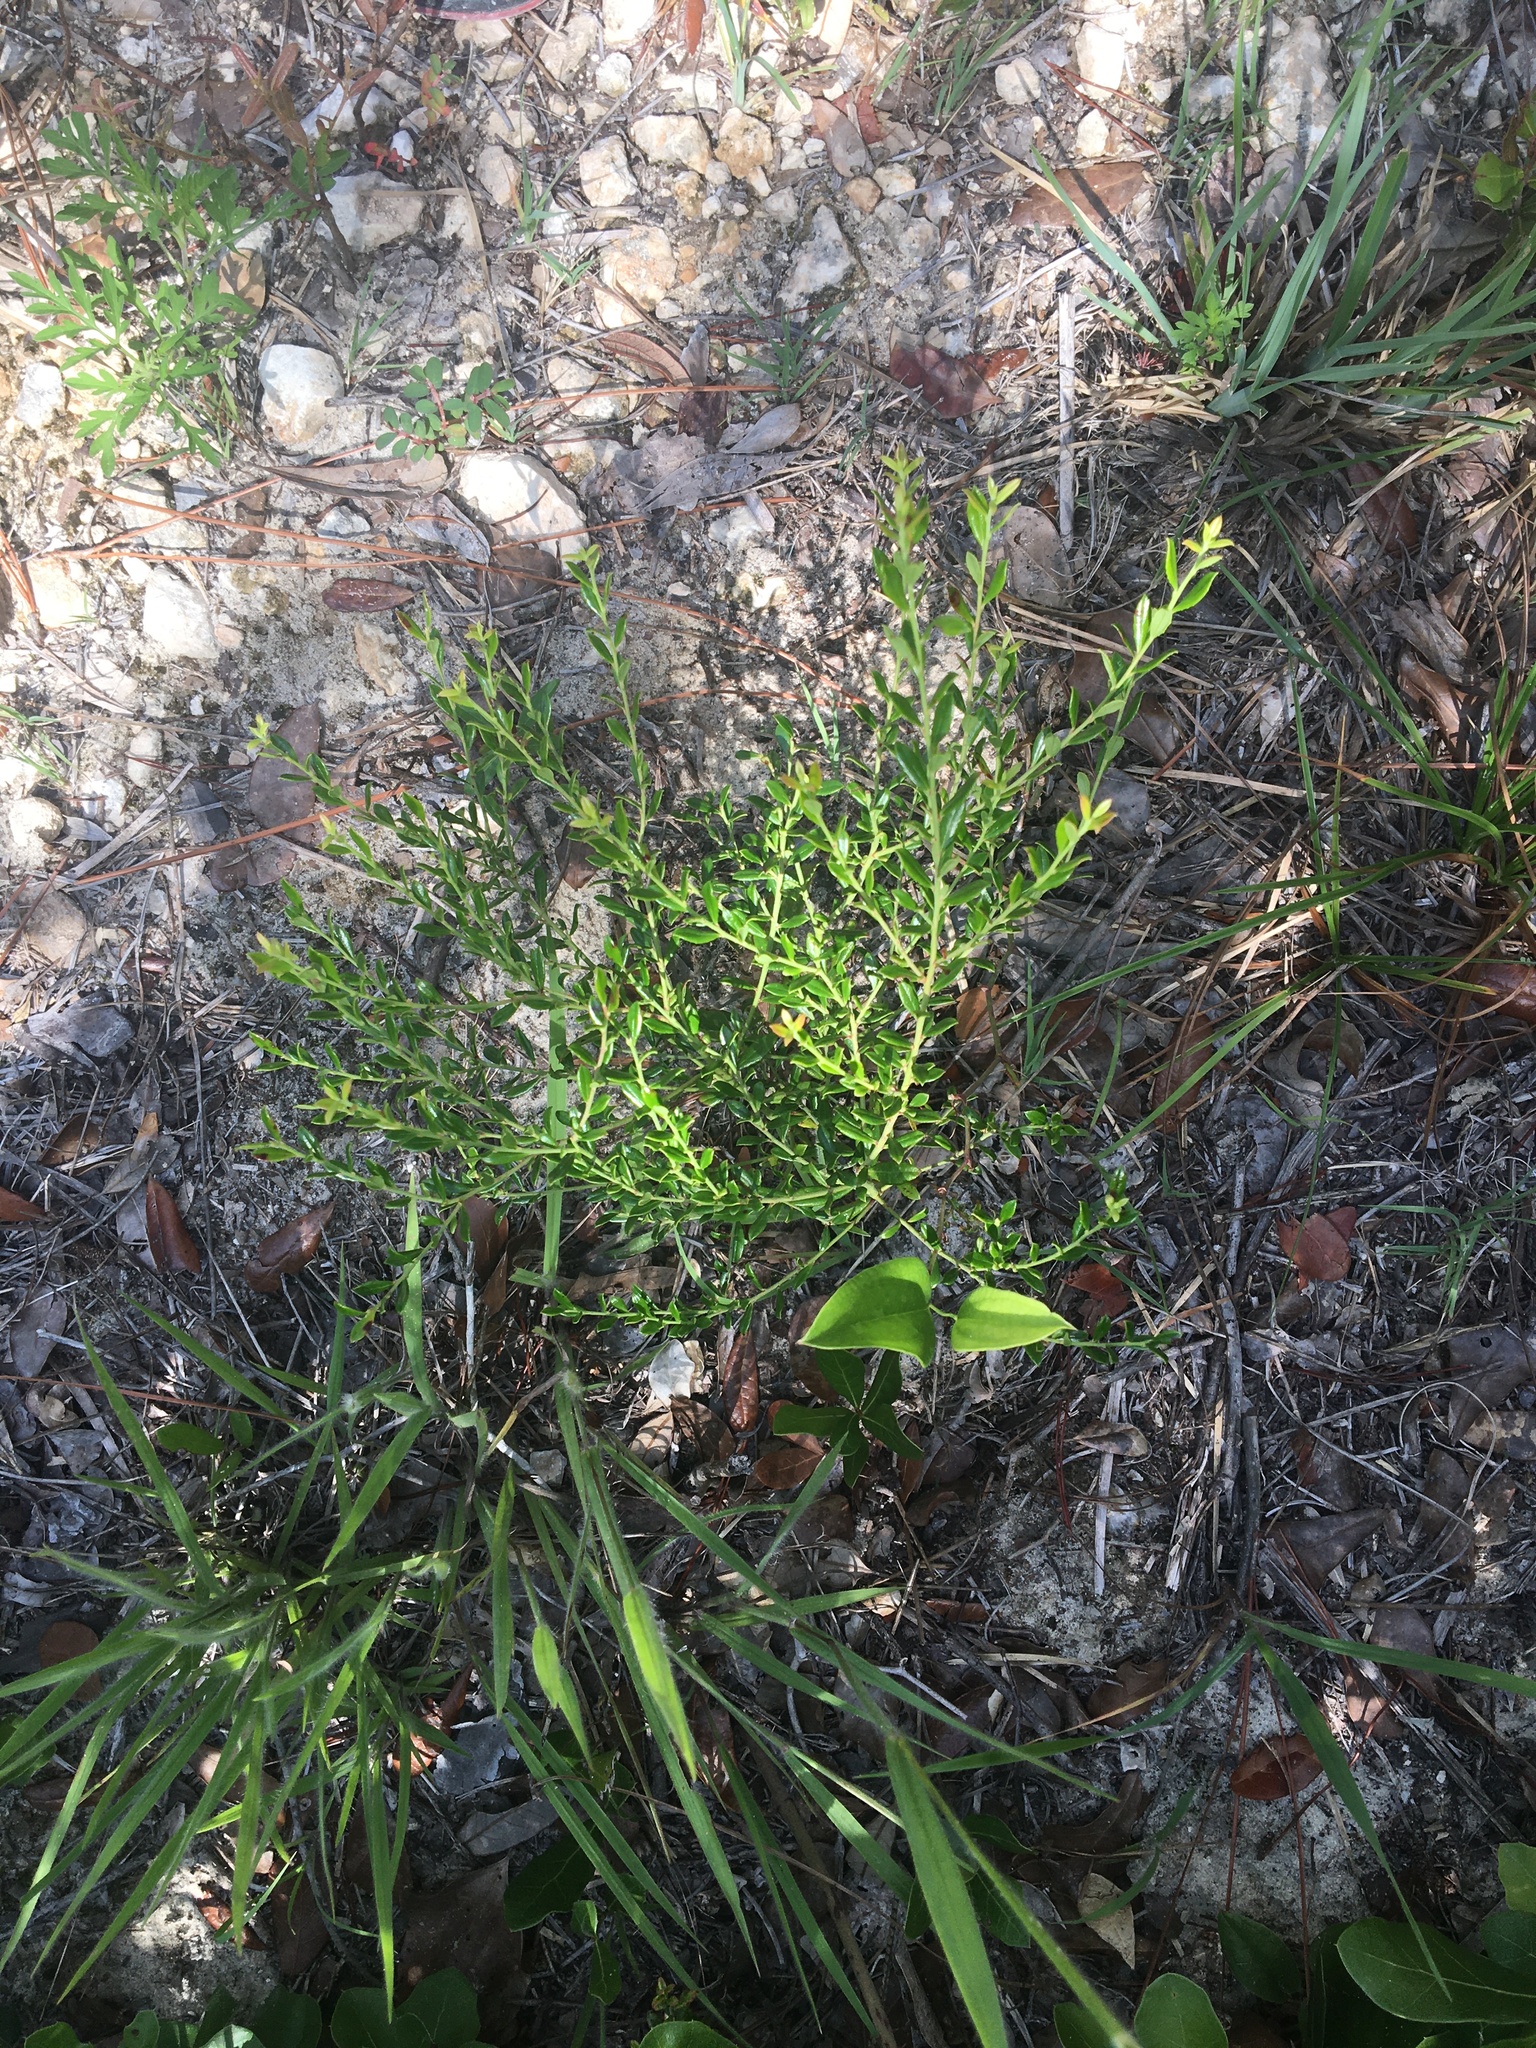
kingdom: Plantae
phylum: Tracheophyta
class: Magnoliopsida
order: Ericales
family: Ericaceae
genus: Vaccinium
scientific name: Vaccinium myrsinites
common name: Evergreen blueberry
